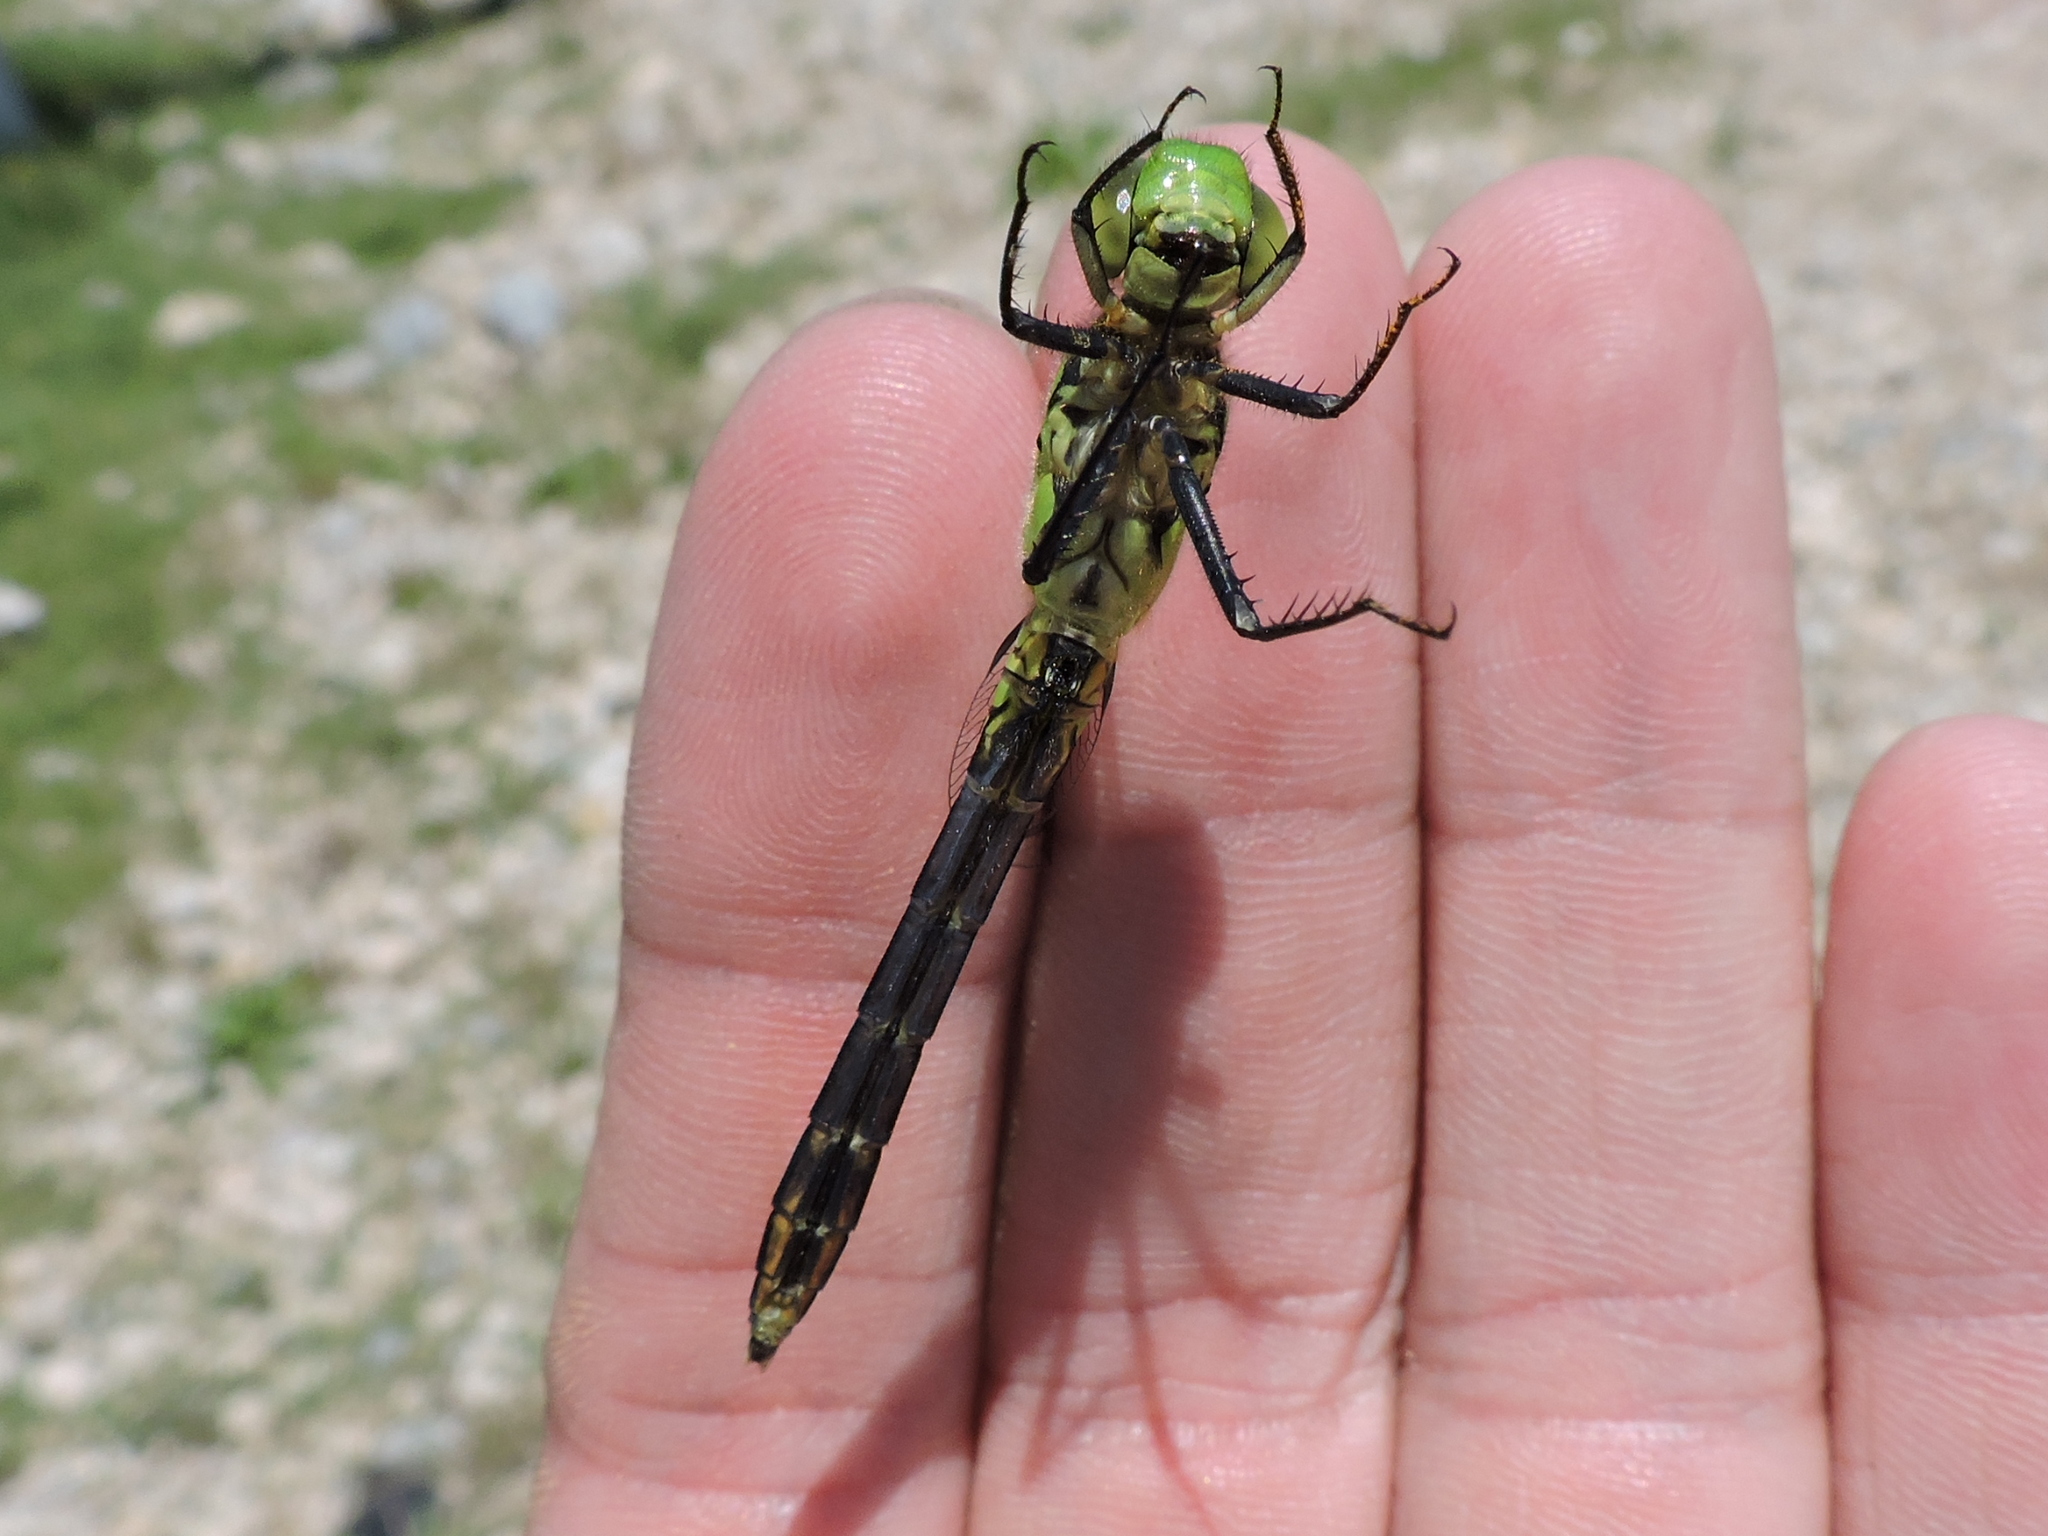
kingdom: Animalia
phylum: Arthropoda
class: Insecta
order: Odonata
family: Libellulidae
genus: Erythemis
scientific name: Erythemis simplicicollis
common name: Eastern pondhawk
